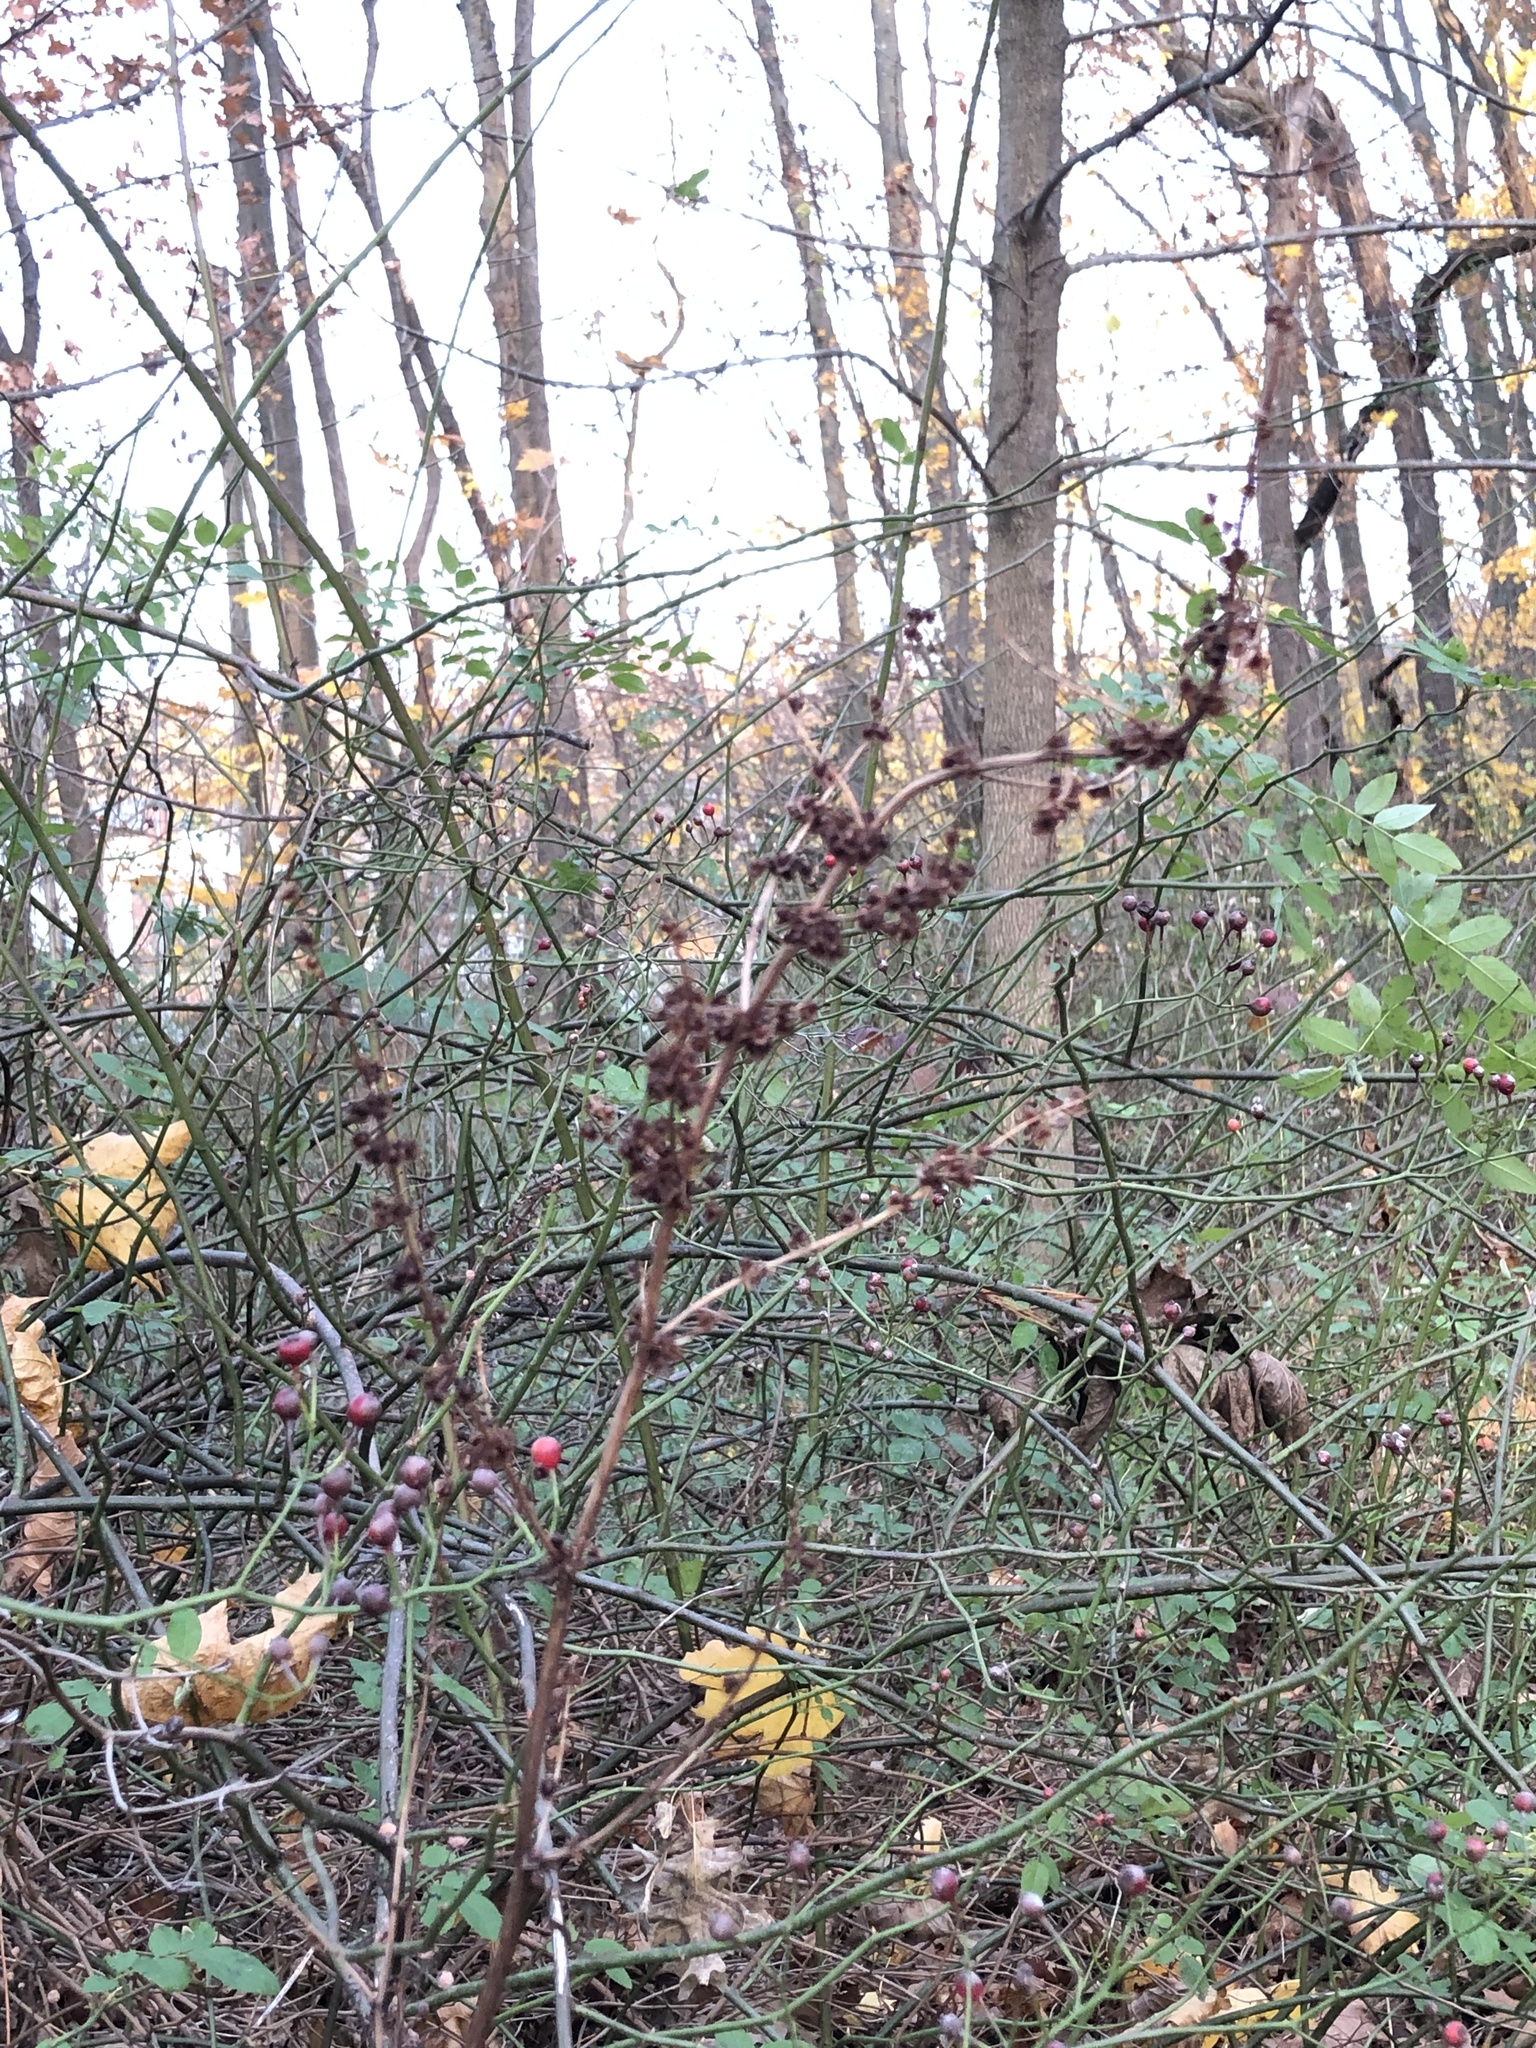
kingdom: Plantae
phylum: Tracheophyta
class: Magnoliopsida
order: Caryophyllales
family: Polygonaceae
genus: Rumex
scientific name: Rumex cristatus
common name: Greek dock
